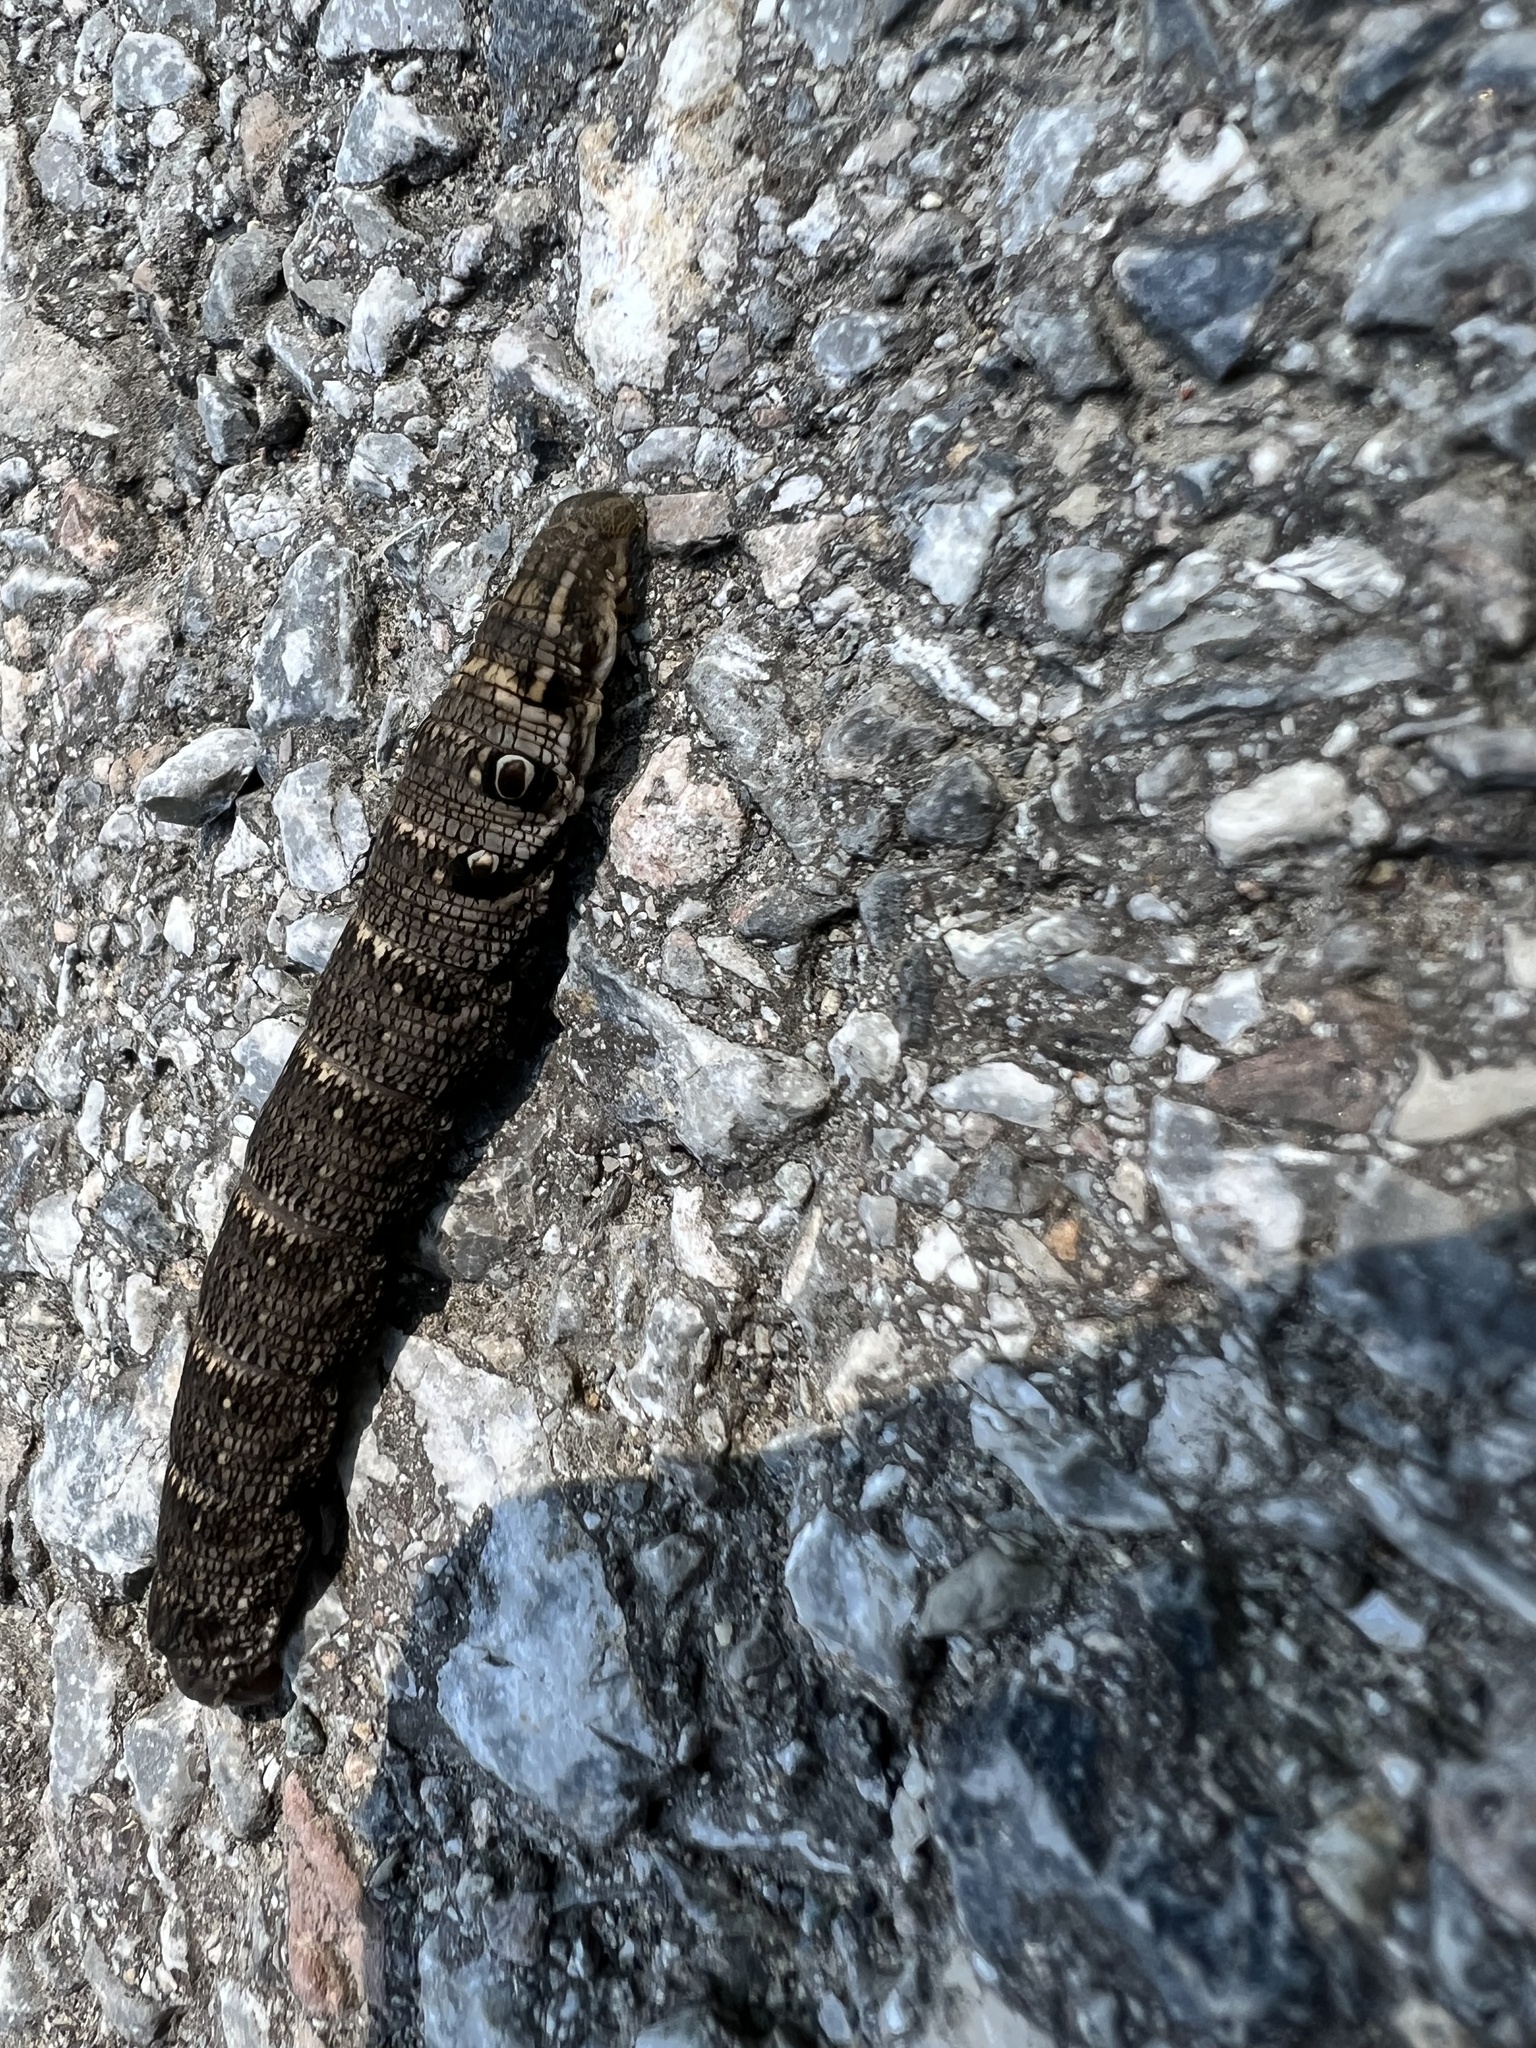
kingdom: Animalia
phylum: Arthropoda
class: Insecta
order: Lepidoptera
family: Sphingidae
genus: Deilephila
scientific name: Deilephila porcellus
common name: Small elephant hawk-moth
